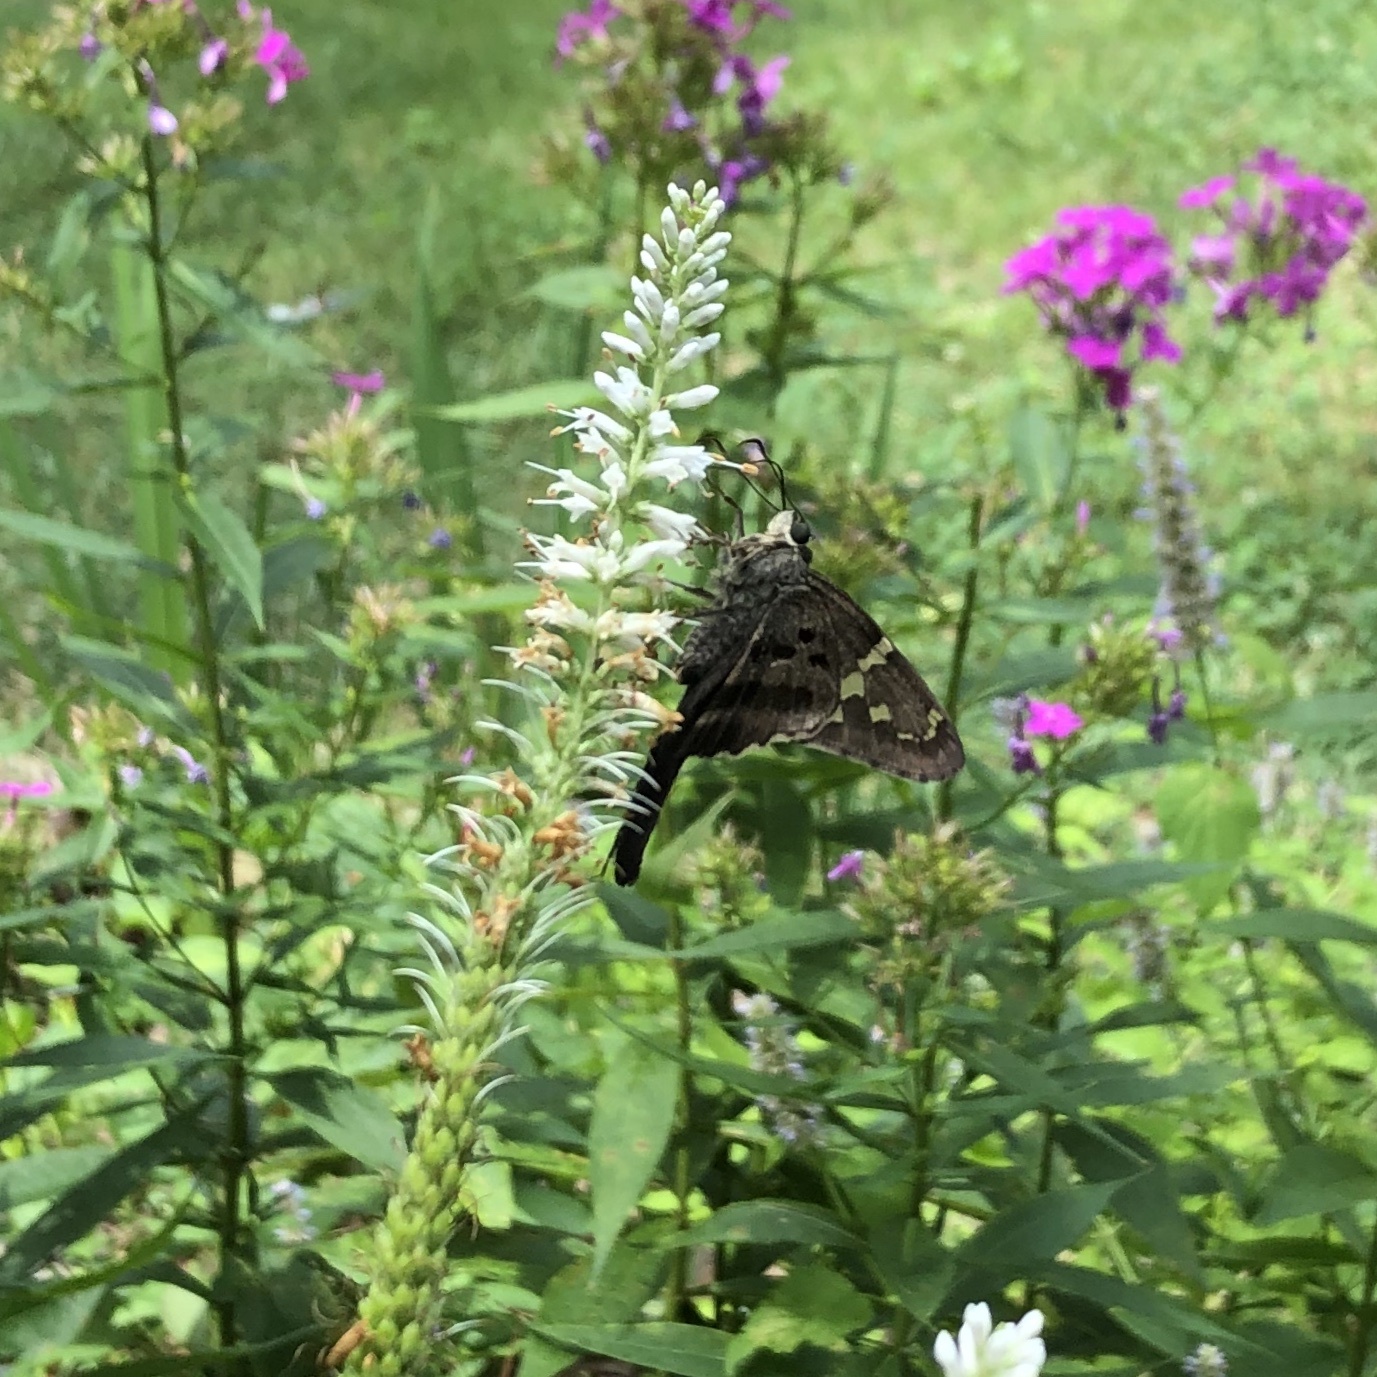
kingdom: Animalia
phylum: Arthropoda
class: Insecta
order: Lepidoptera
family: Hesperiidae
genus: Urbanus
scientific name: Urbanus proteus
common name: Long-tailed skipper
